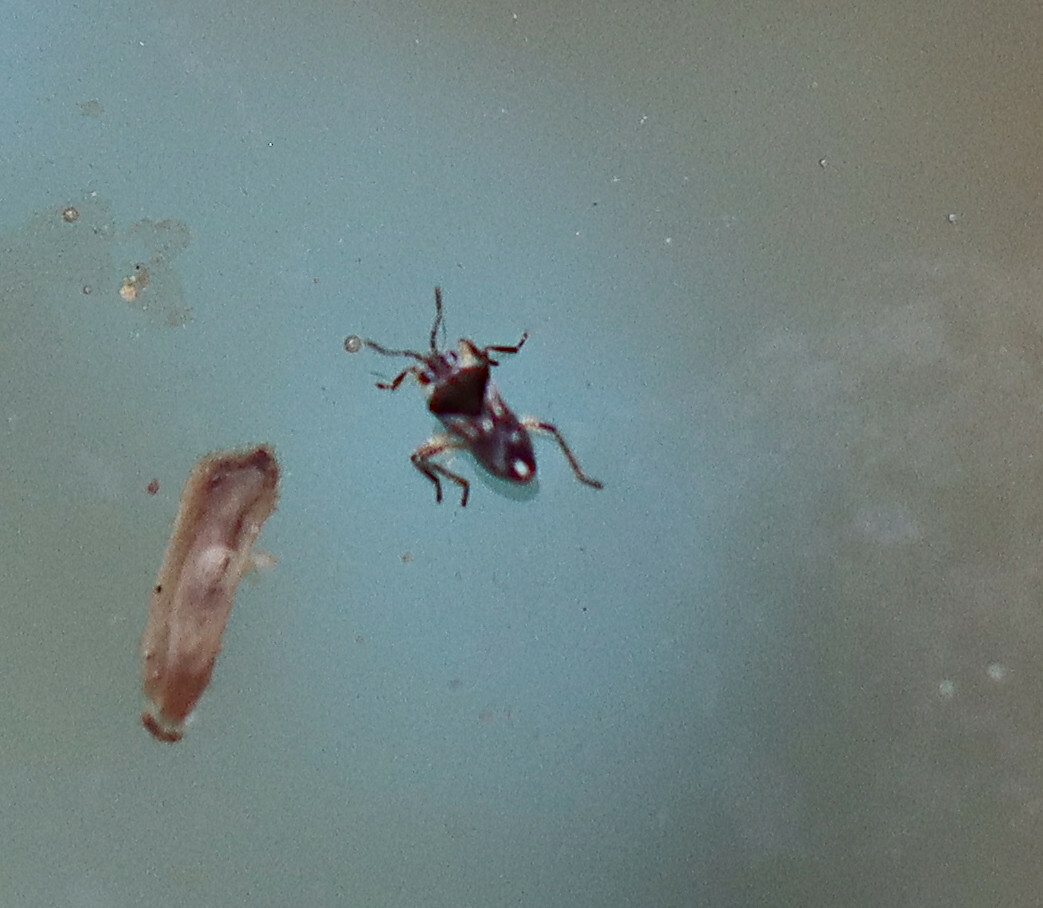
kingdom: Animalia
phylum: Arthropoda
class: Insecta
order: Hemiptera
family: Veliidae
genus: Microvelia
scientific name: Microvelia
